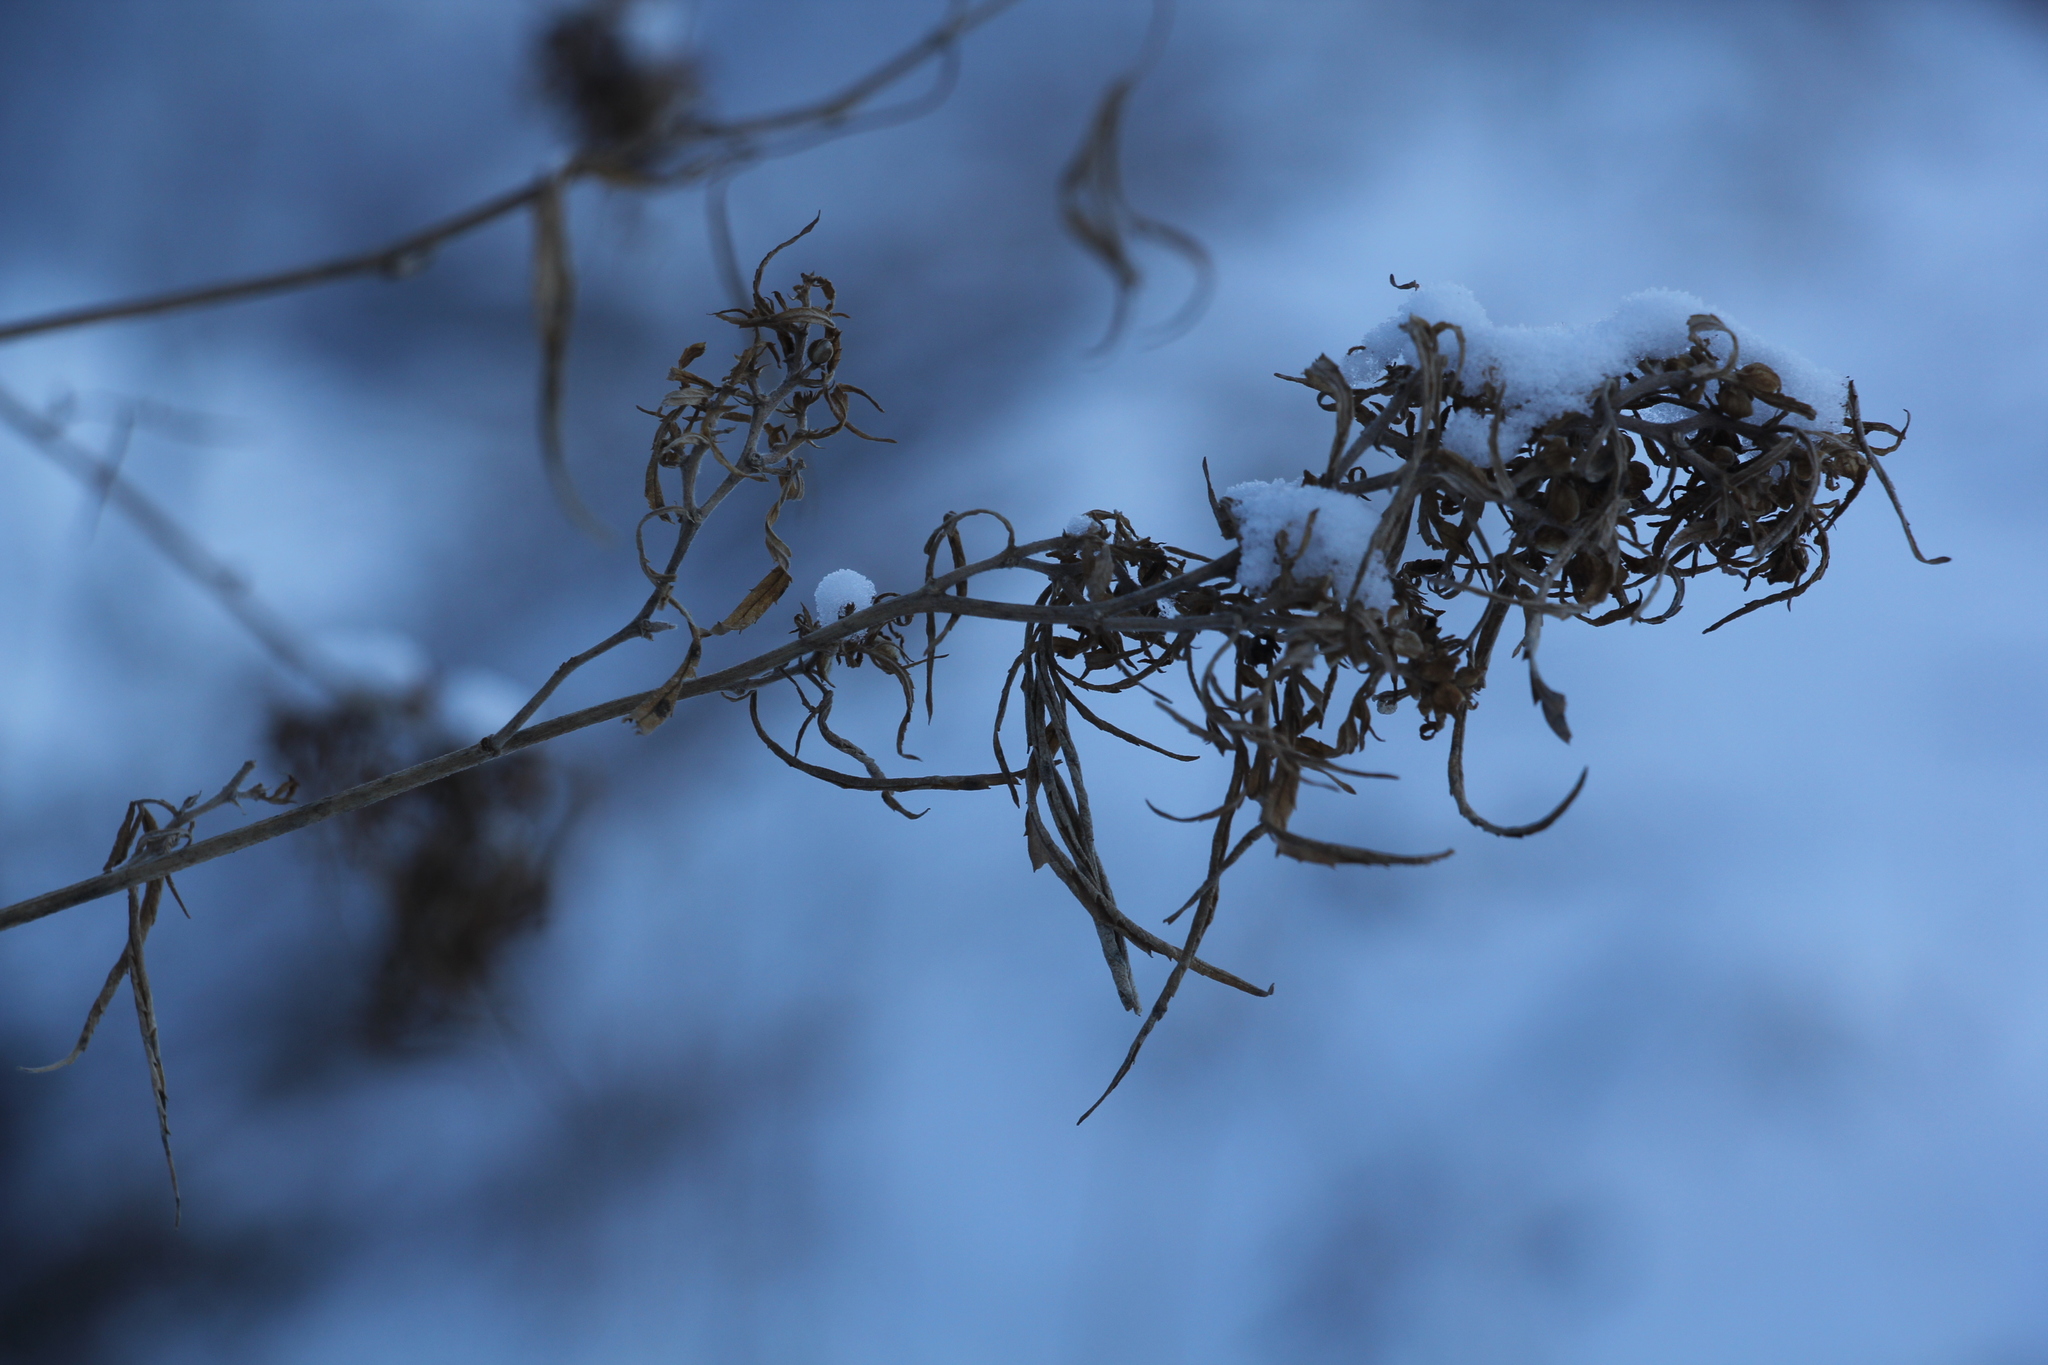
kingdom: Plantae
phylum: Tracheophyta
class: Magnoliopsida
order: Rosales
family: Cannabaceae
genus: Cannabis
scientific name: Cannabis sativa
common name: Hemp
